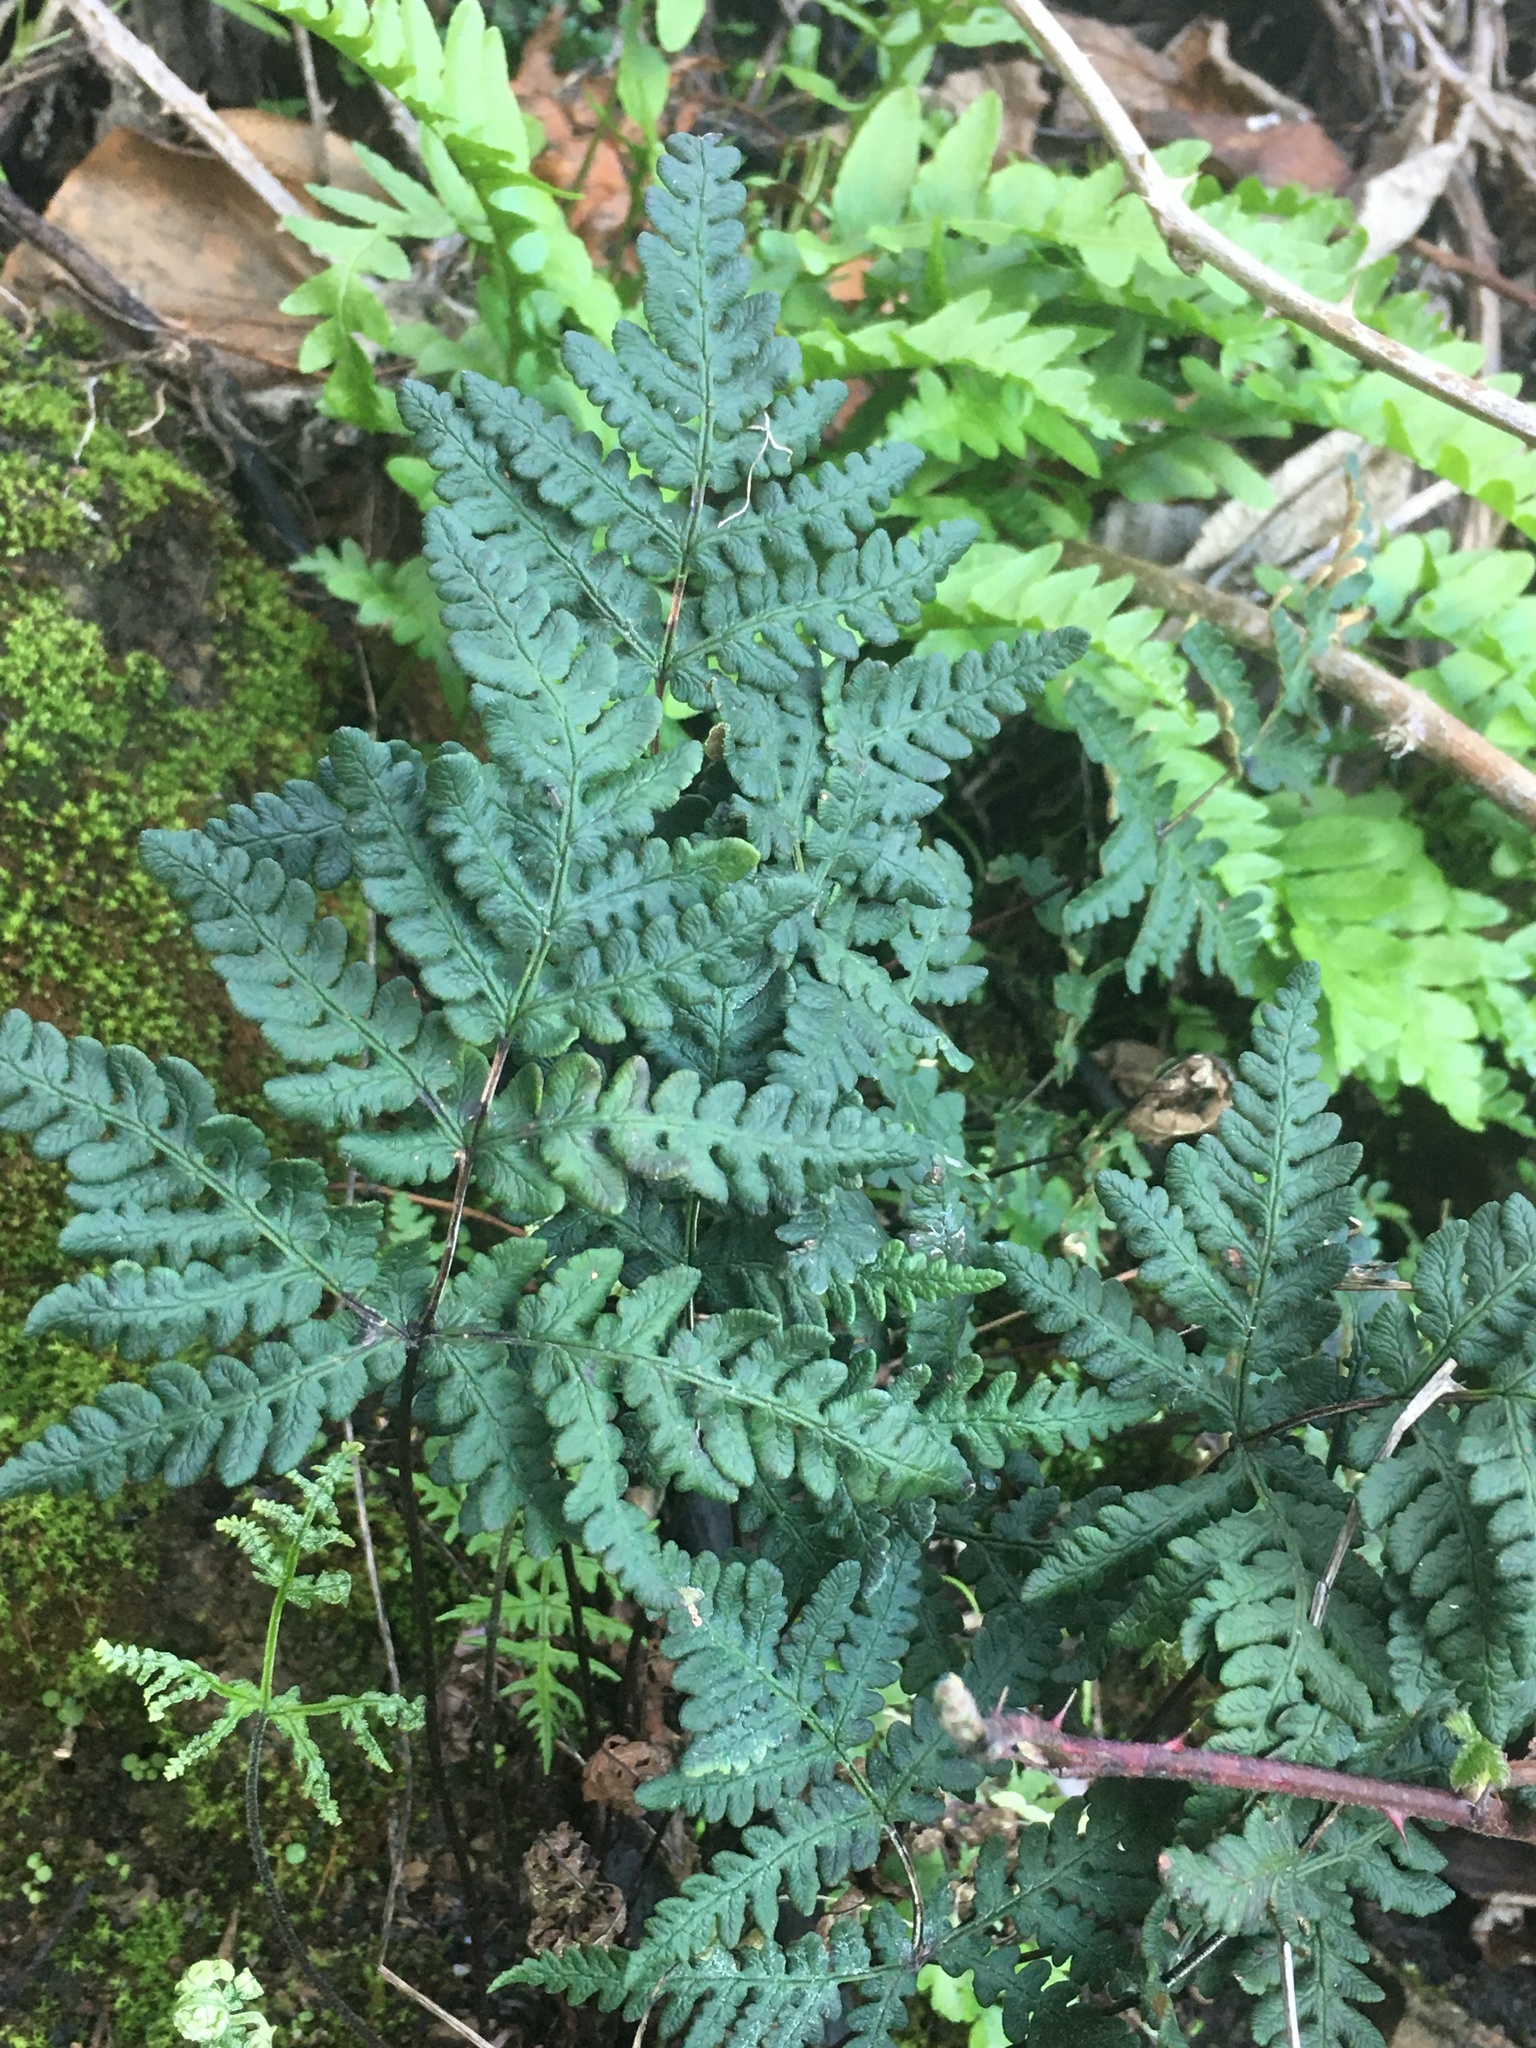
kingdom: Plantae
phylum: Tracheophyta
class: Polypodiopsida
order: Polypodiales
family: Pteridaceae
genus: Pentagramma
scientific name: Pentagramma triangularis
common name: Gold fern
